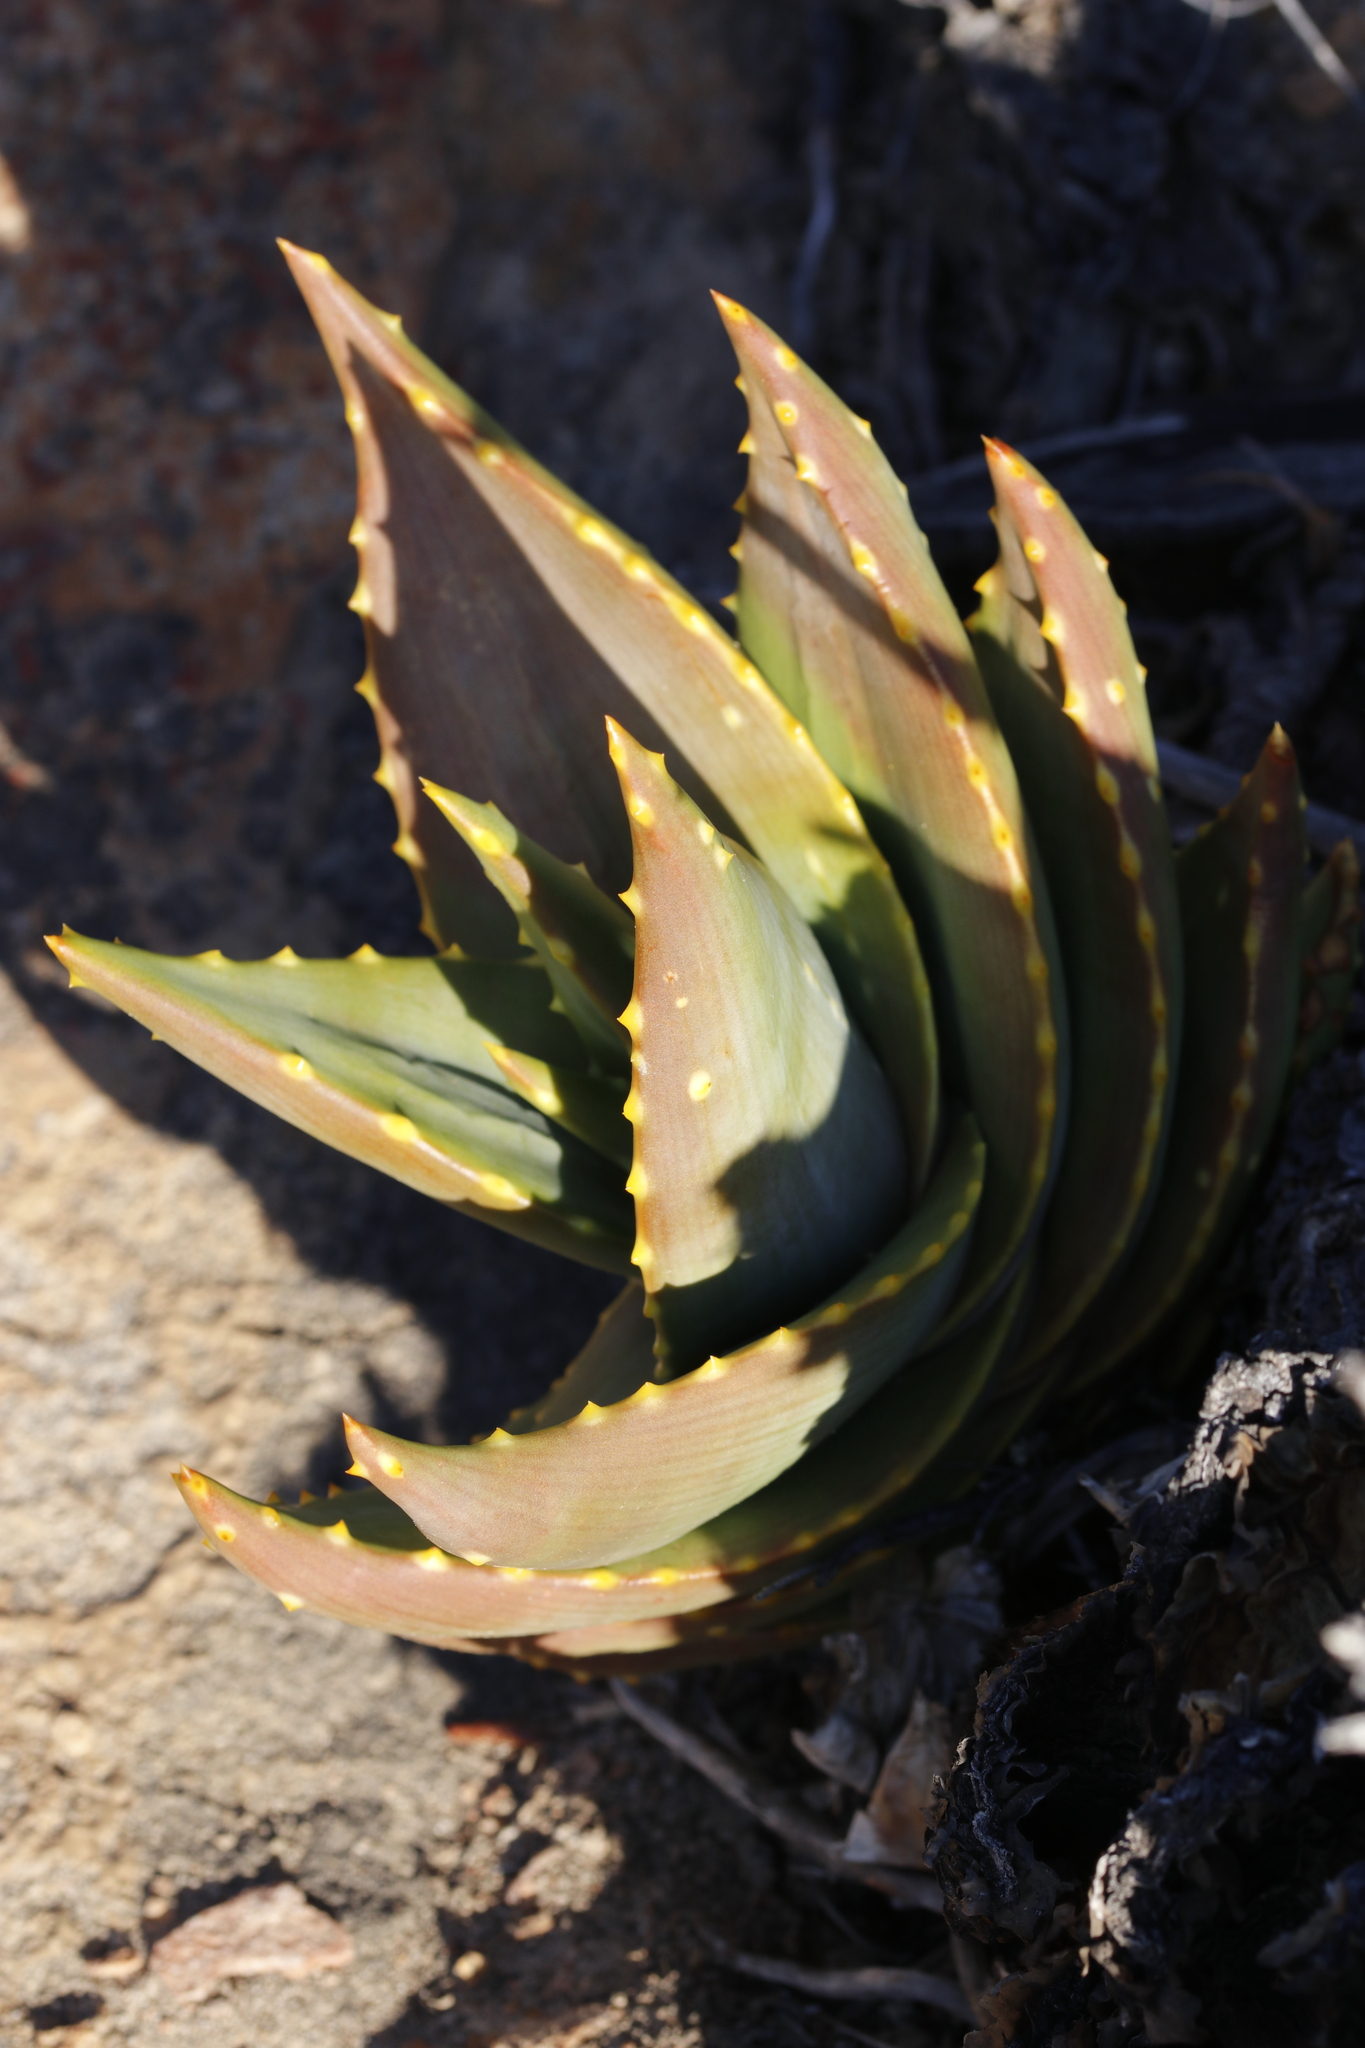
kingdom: Plantae
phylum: Tracheophyta
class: Liliopsida
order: Asparagales
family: Asphodelaceae
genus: Aloe
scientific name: Aloe perfoliata
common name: Mitra aloe
